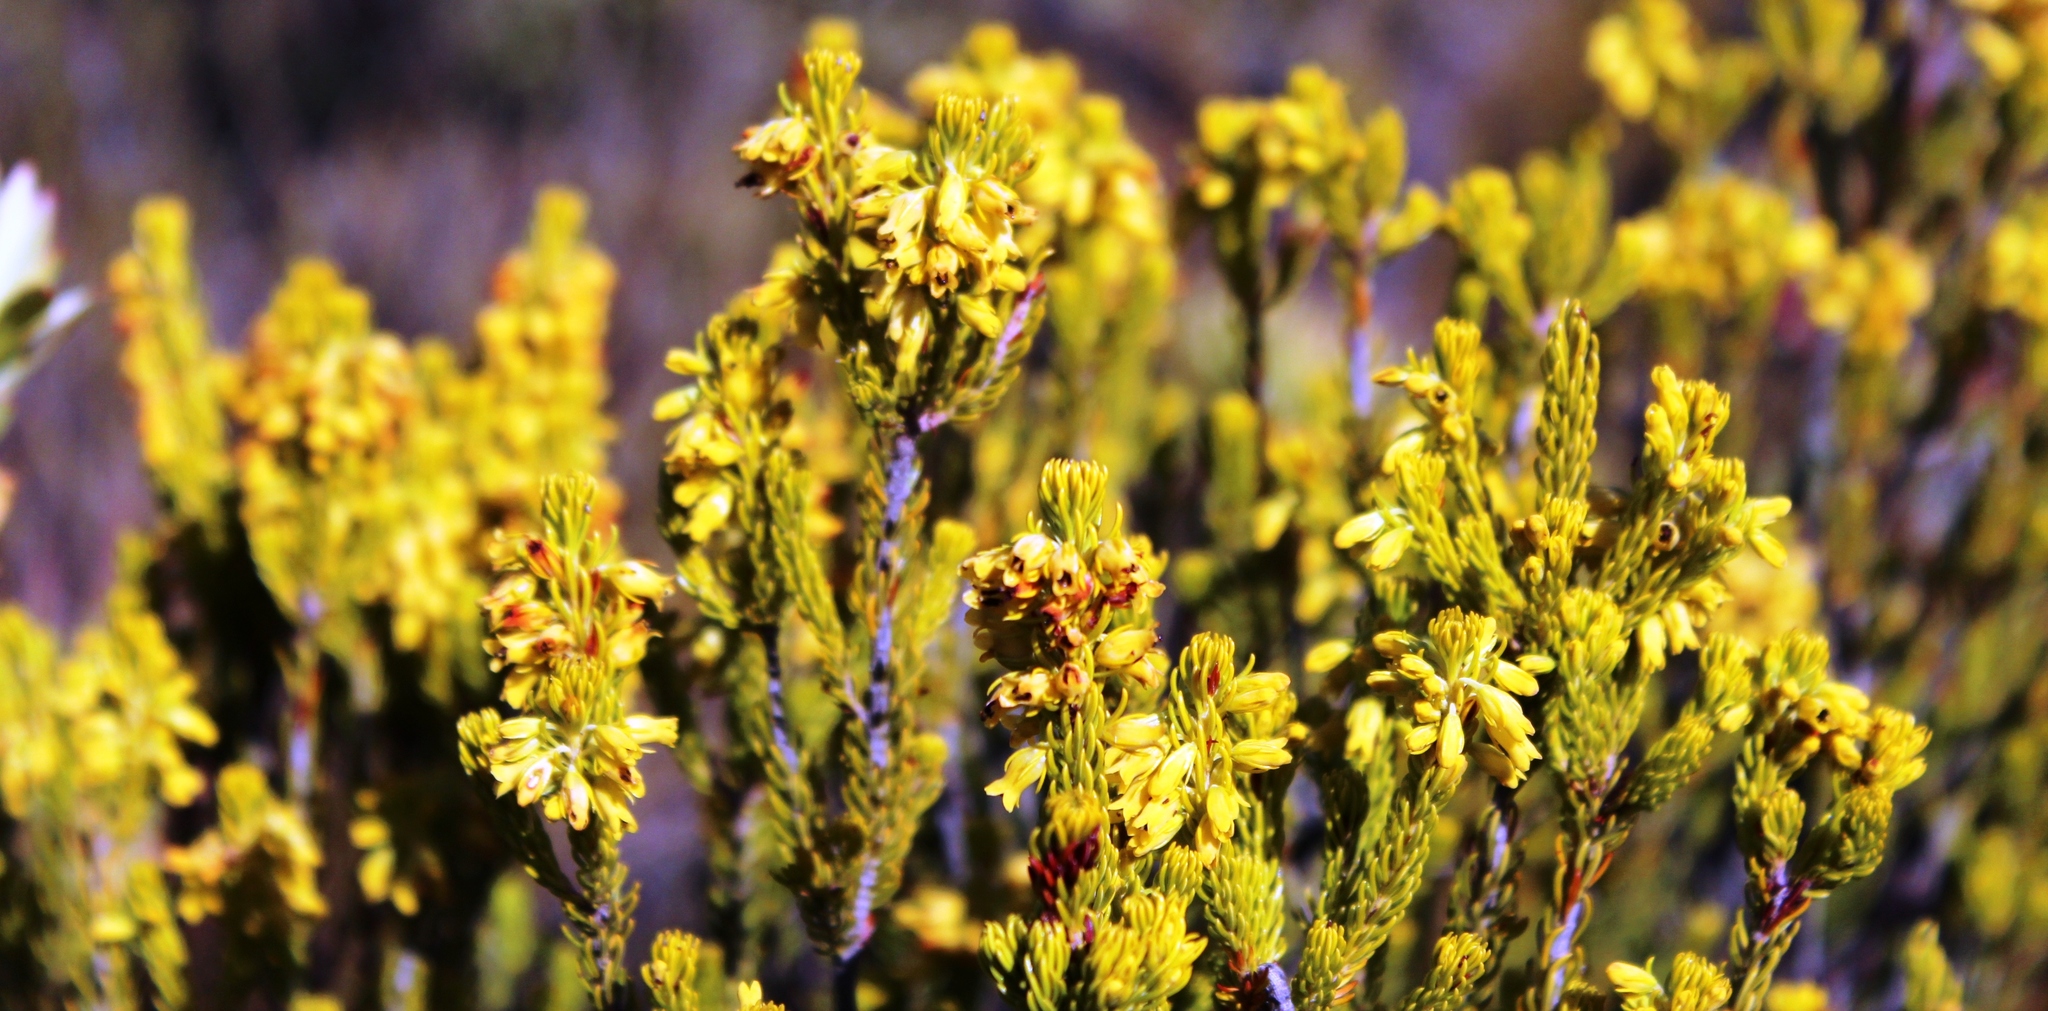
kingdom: Plantae
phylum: Tracheophyta
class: Magnoliopsida
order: Ericales
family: Ericaceae
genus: Erica
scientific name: Erica parilis
